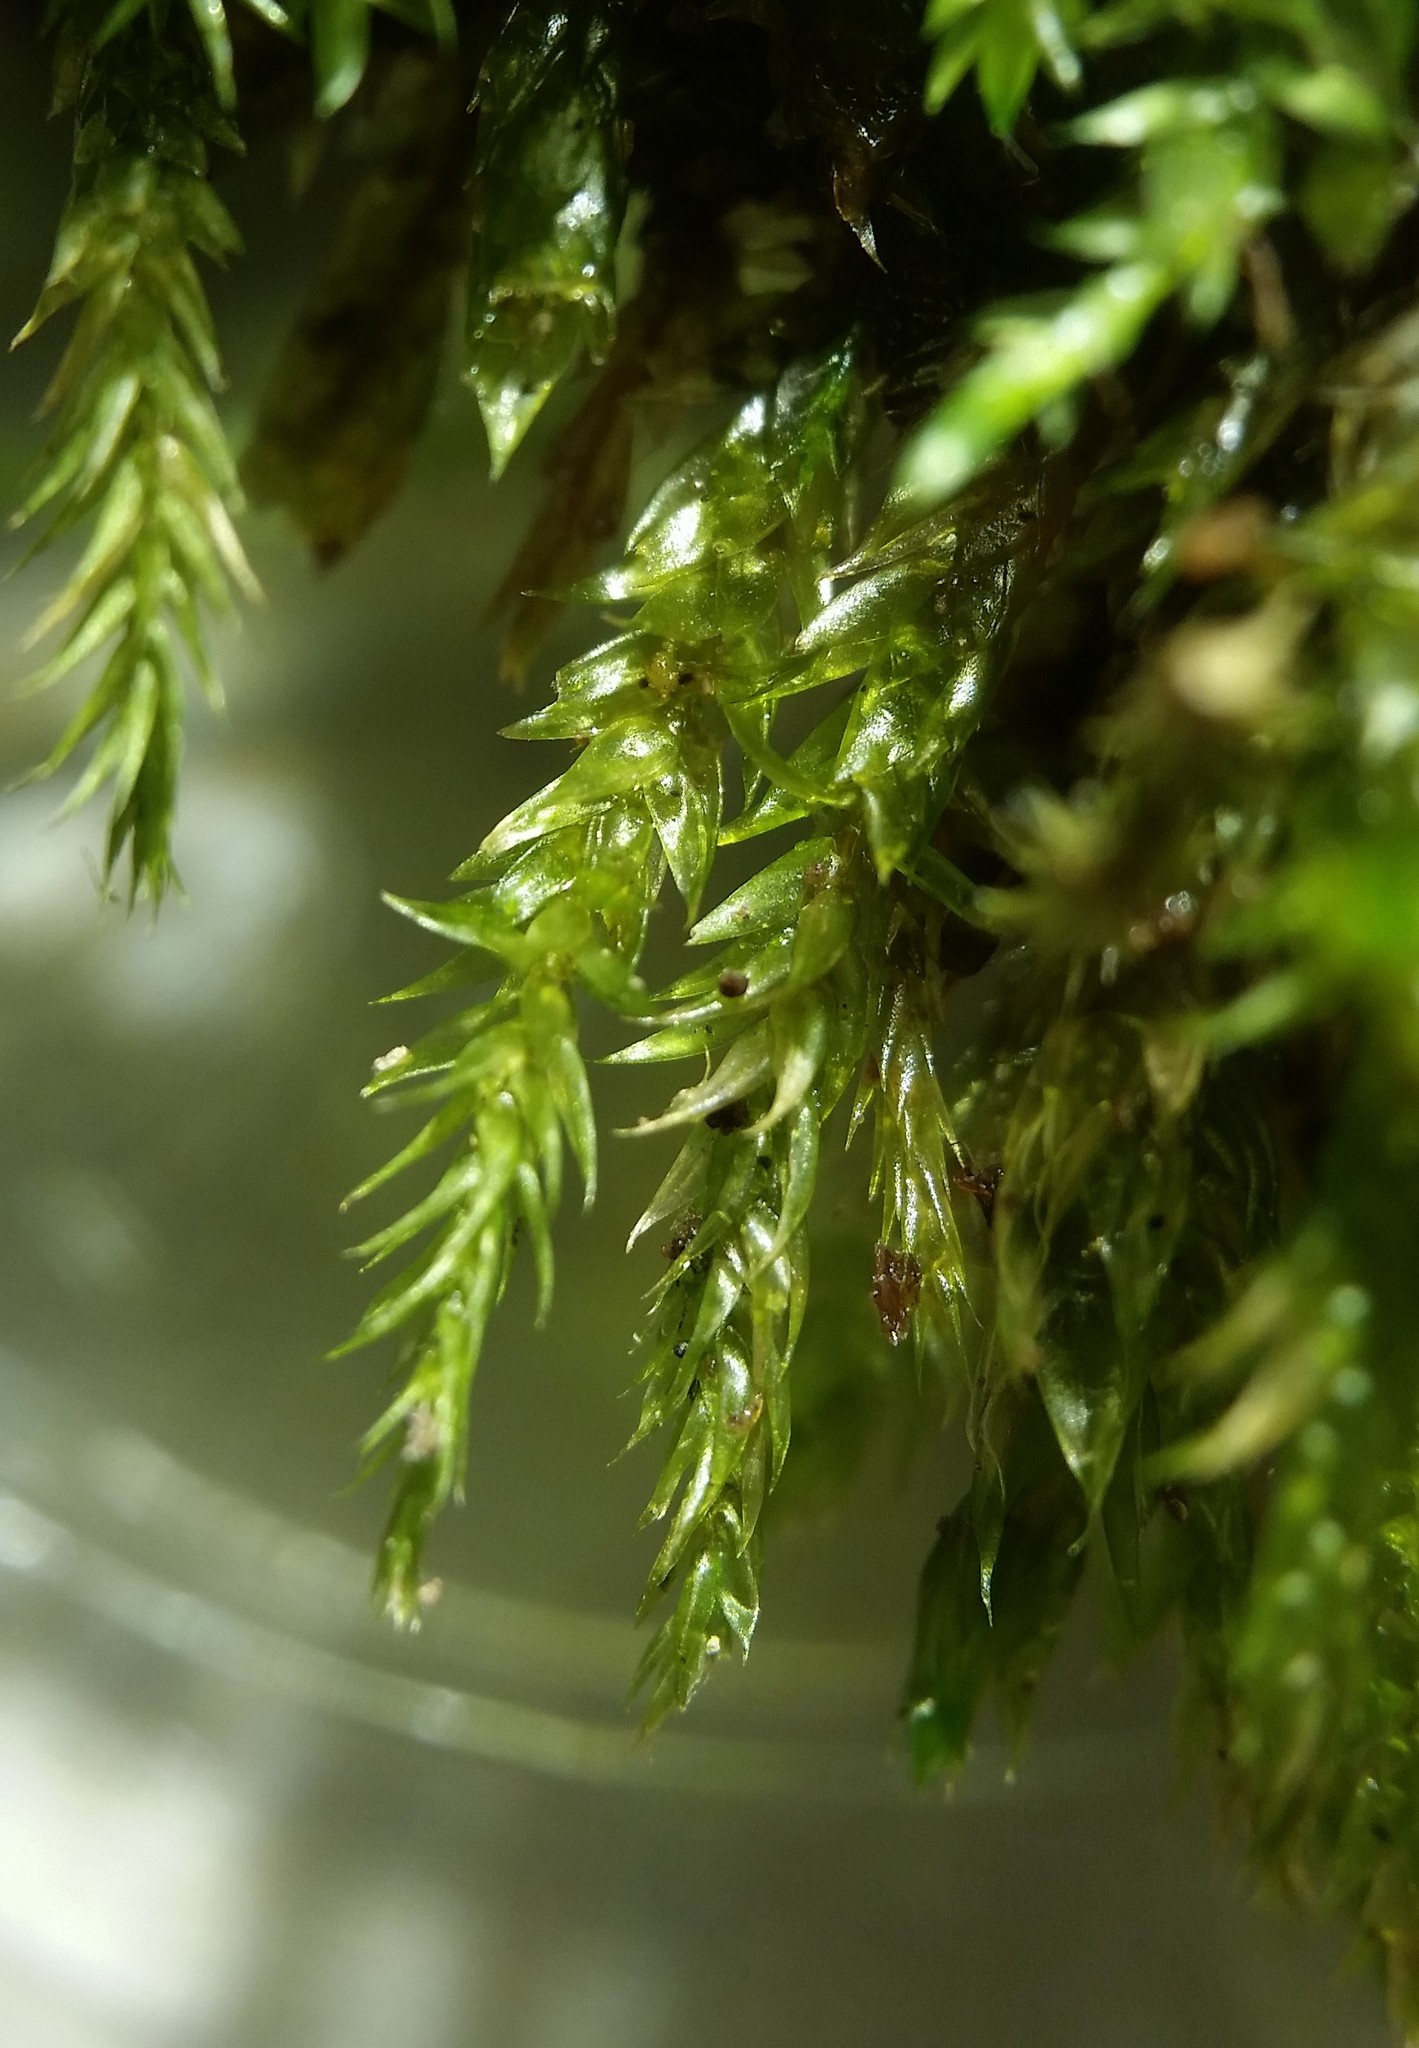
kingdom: Plantae
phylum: Bryophyta
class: Bryopsida
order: Hypnales
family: Callicladiaceae
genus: Callicladium
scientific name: Callicladium haldanianum
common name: Beautiful branch moss
